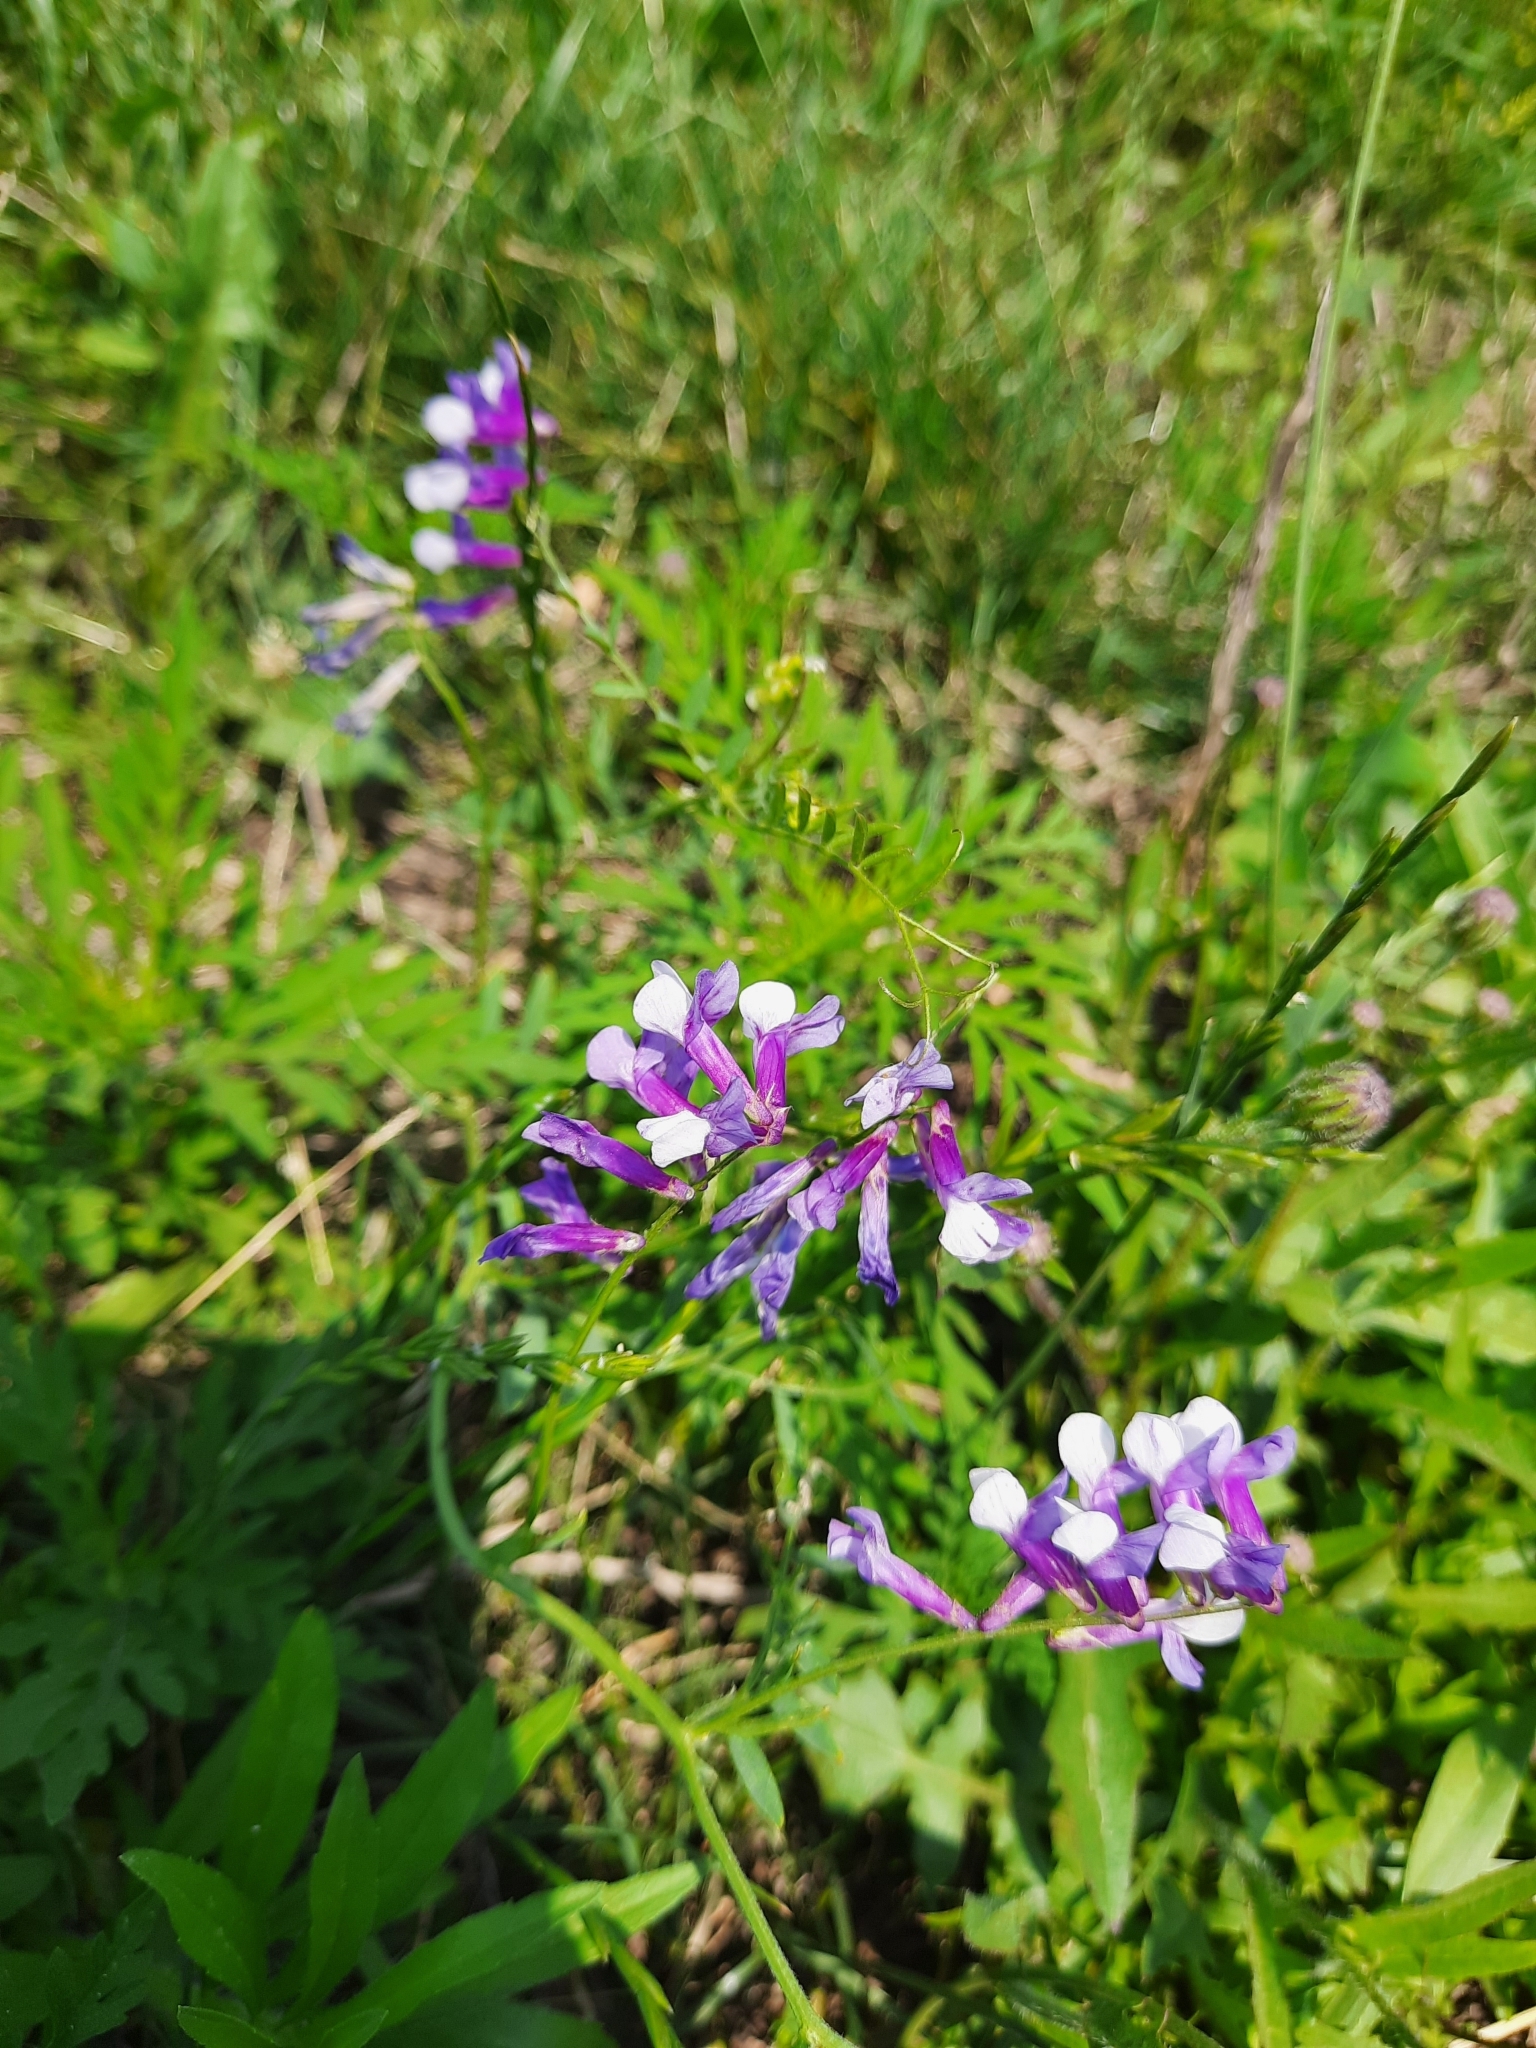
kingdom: Plantae
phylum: Tracheophyta
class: Magnoliopsida
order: Fabales
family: Fabaceae
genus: Vicia
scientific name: Vicia villosa
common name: Fodder vetch
